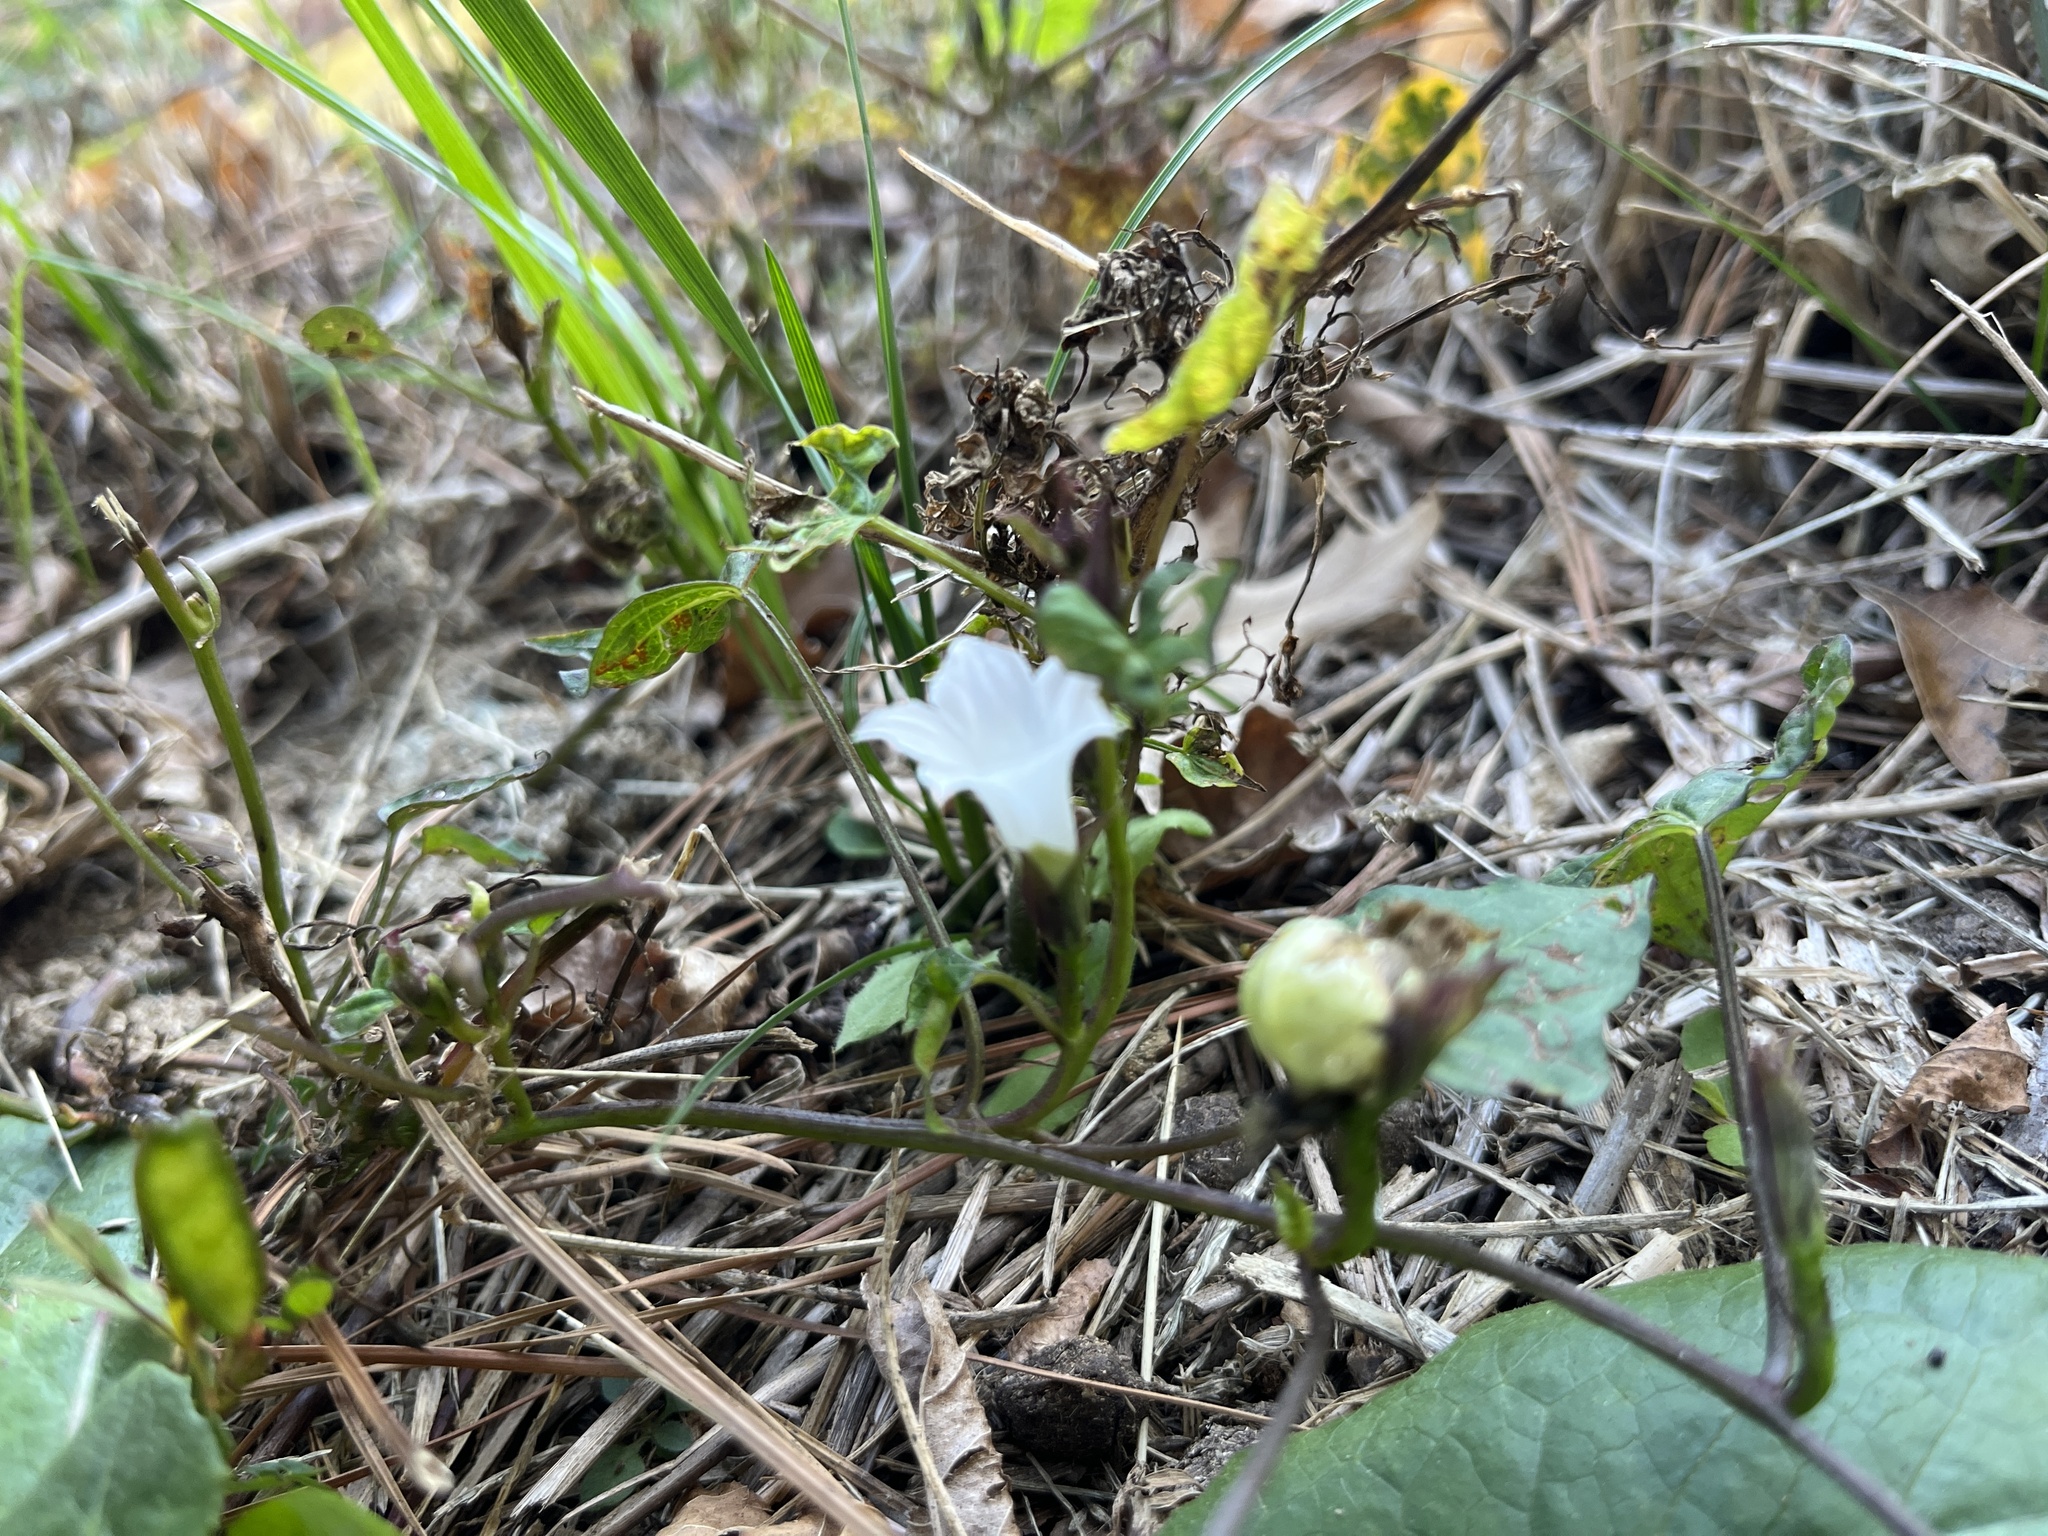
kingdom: Plantae
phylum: Tracheophyta
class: Magnoliopsida
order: Solanales
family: Convolvulaceae
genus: Ipomoea
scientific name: Ipomoea lacunosa
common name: White morning-glory
